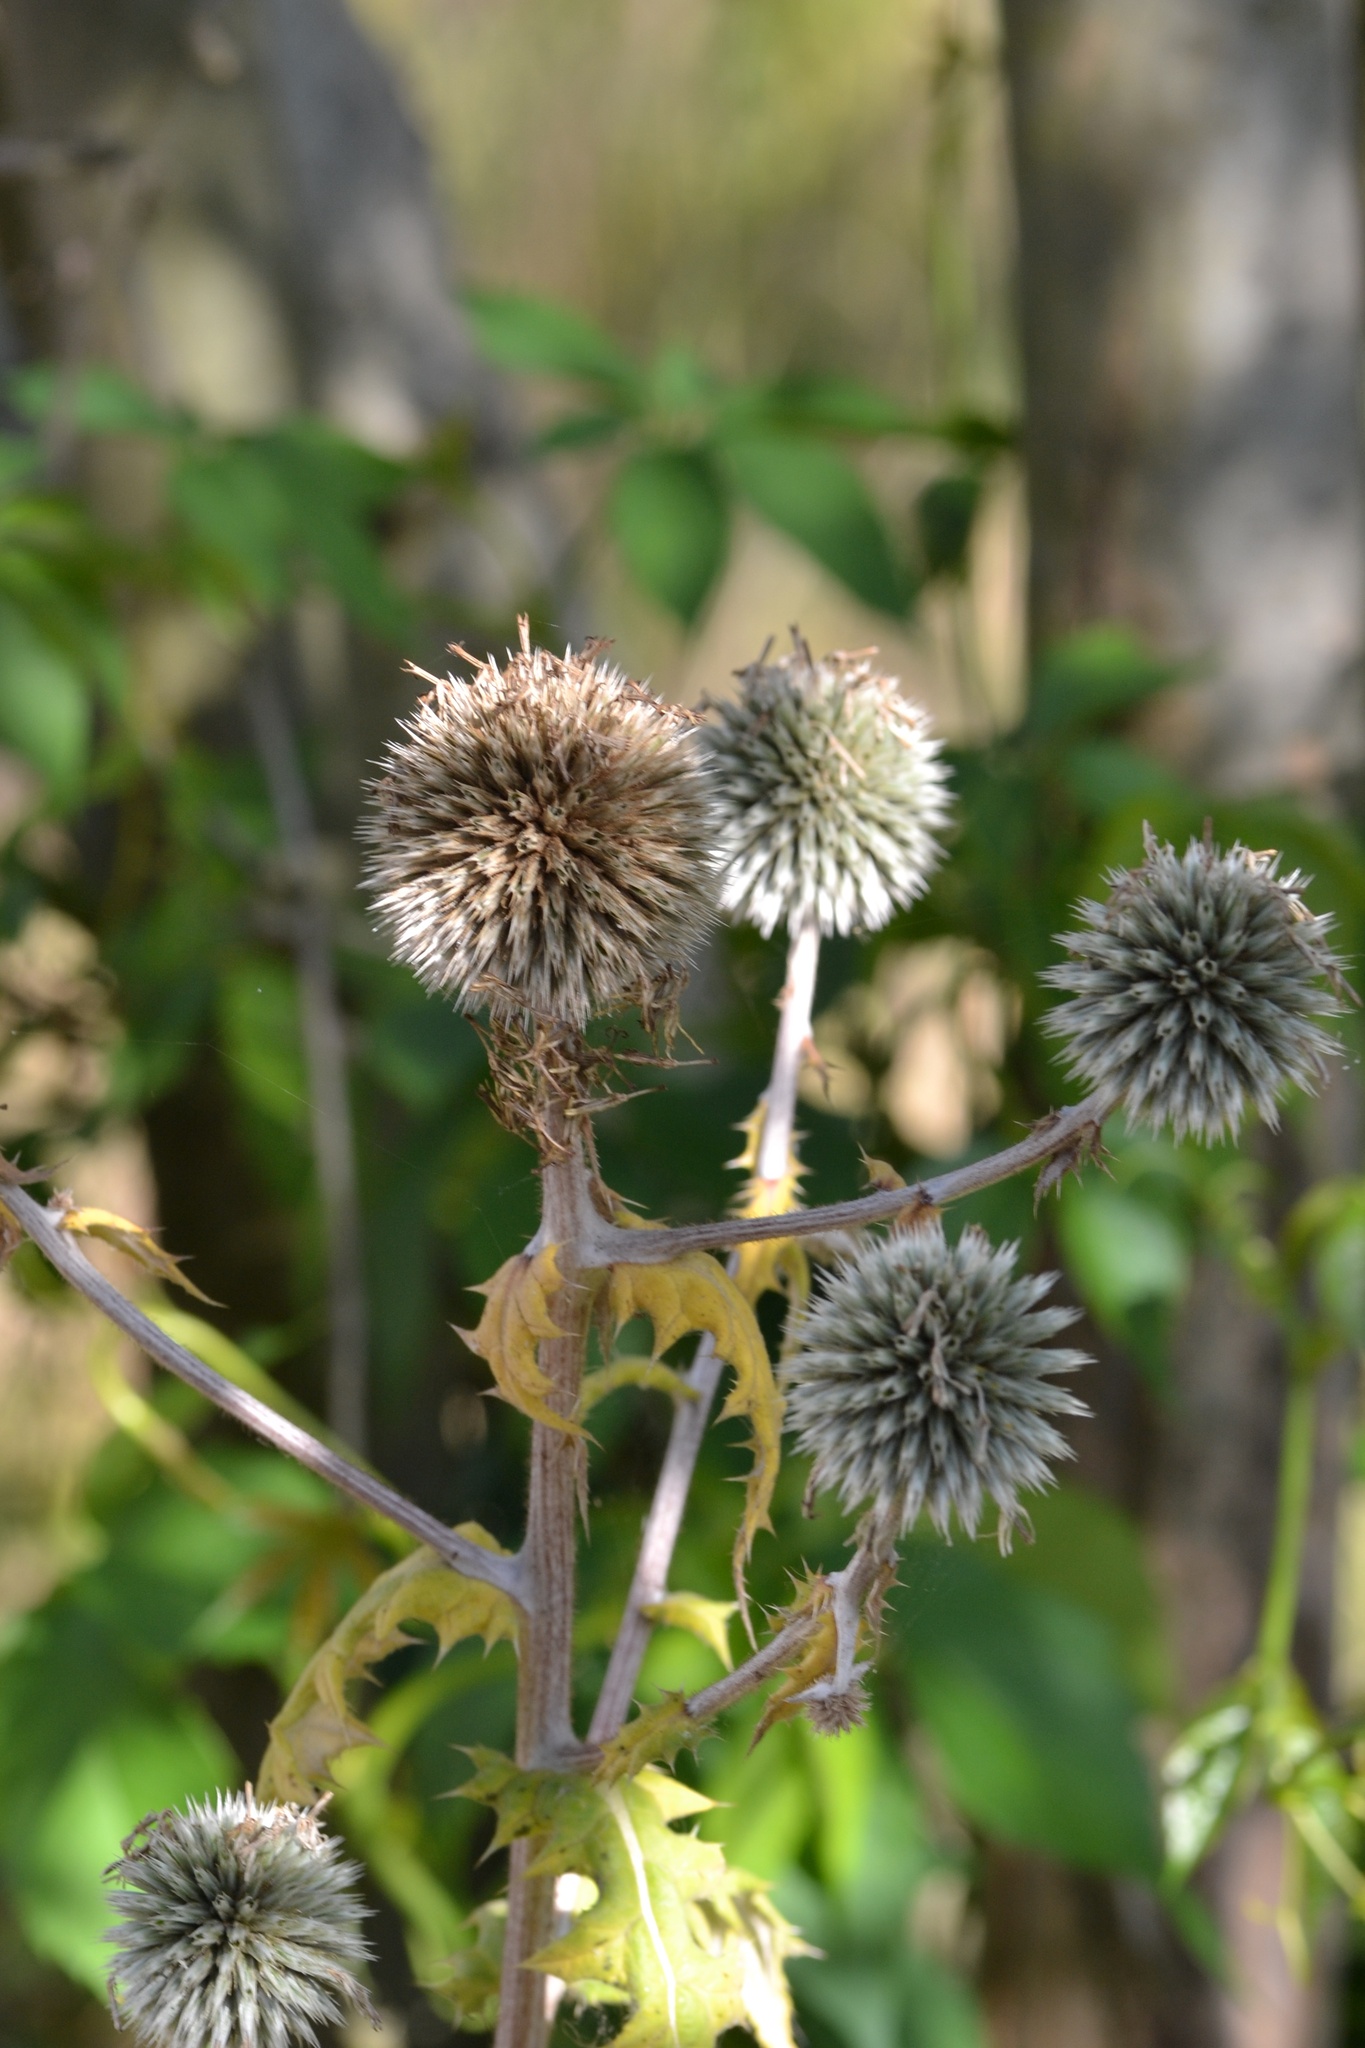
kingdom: Plantae
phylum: Tracheophyta
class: Magnoliopsida
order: Asterales
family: Asteraceae
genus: Echinops
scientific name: Echinops sphaerocephalus
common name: Glandular globe-thistle
